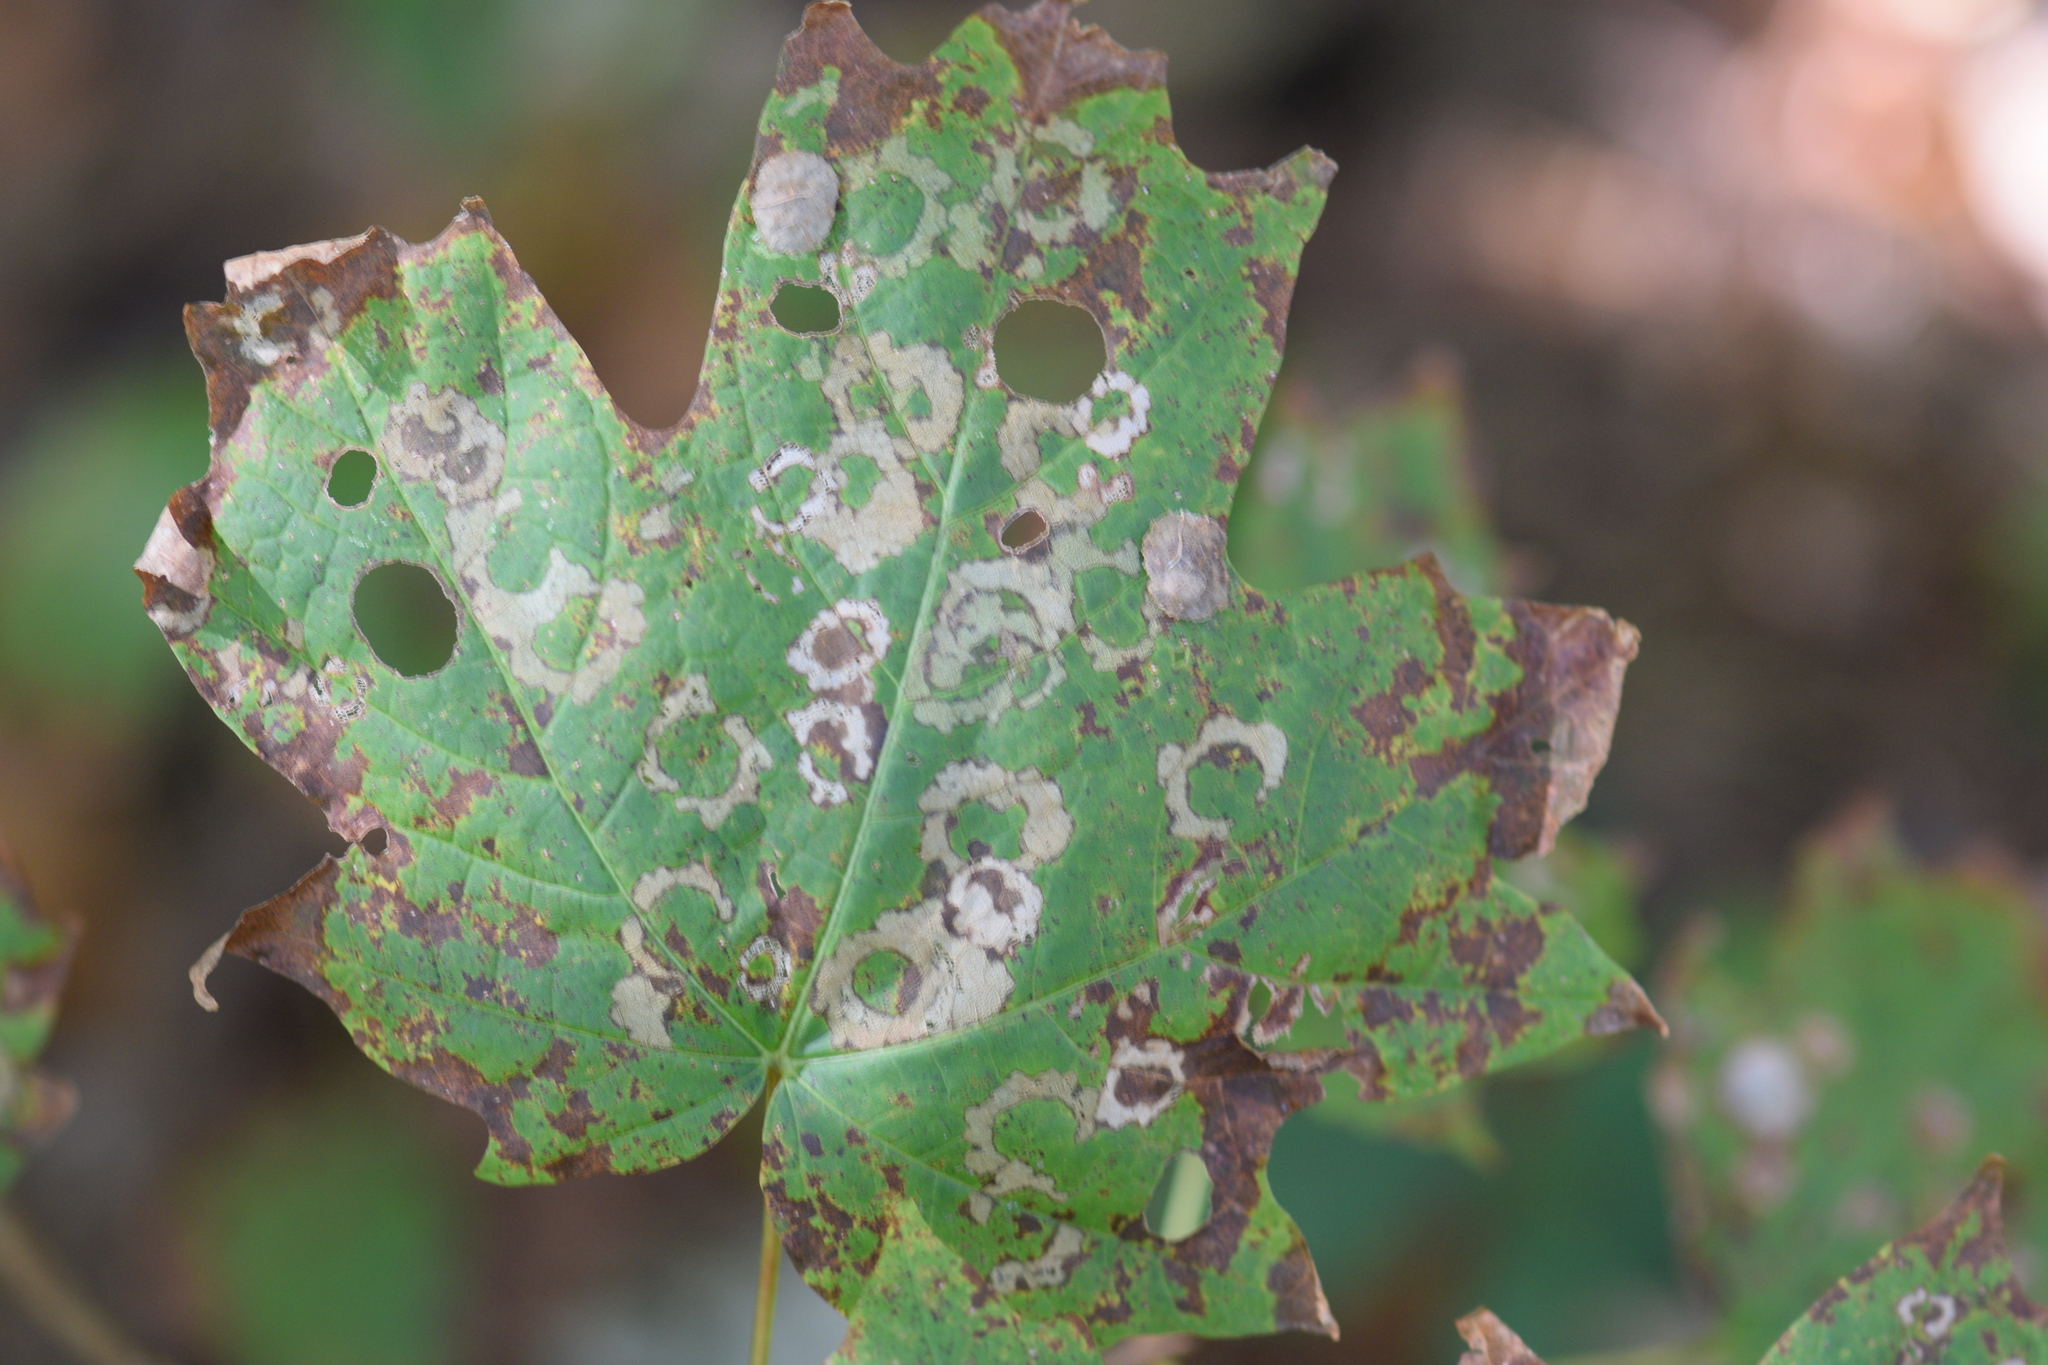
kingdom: Animalia
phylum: Arthropoda
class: Insecta
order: Lepidoptera
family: Incurvariidae
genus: Paraclemensia
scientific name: Paraclemensia acerifoliella
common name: Maple leafcutter
